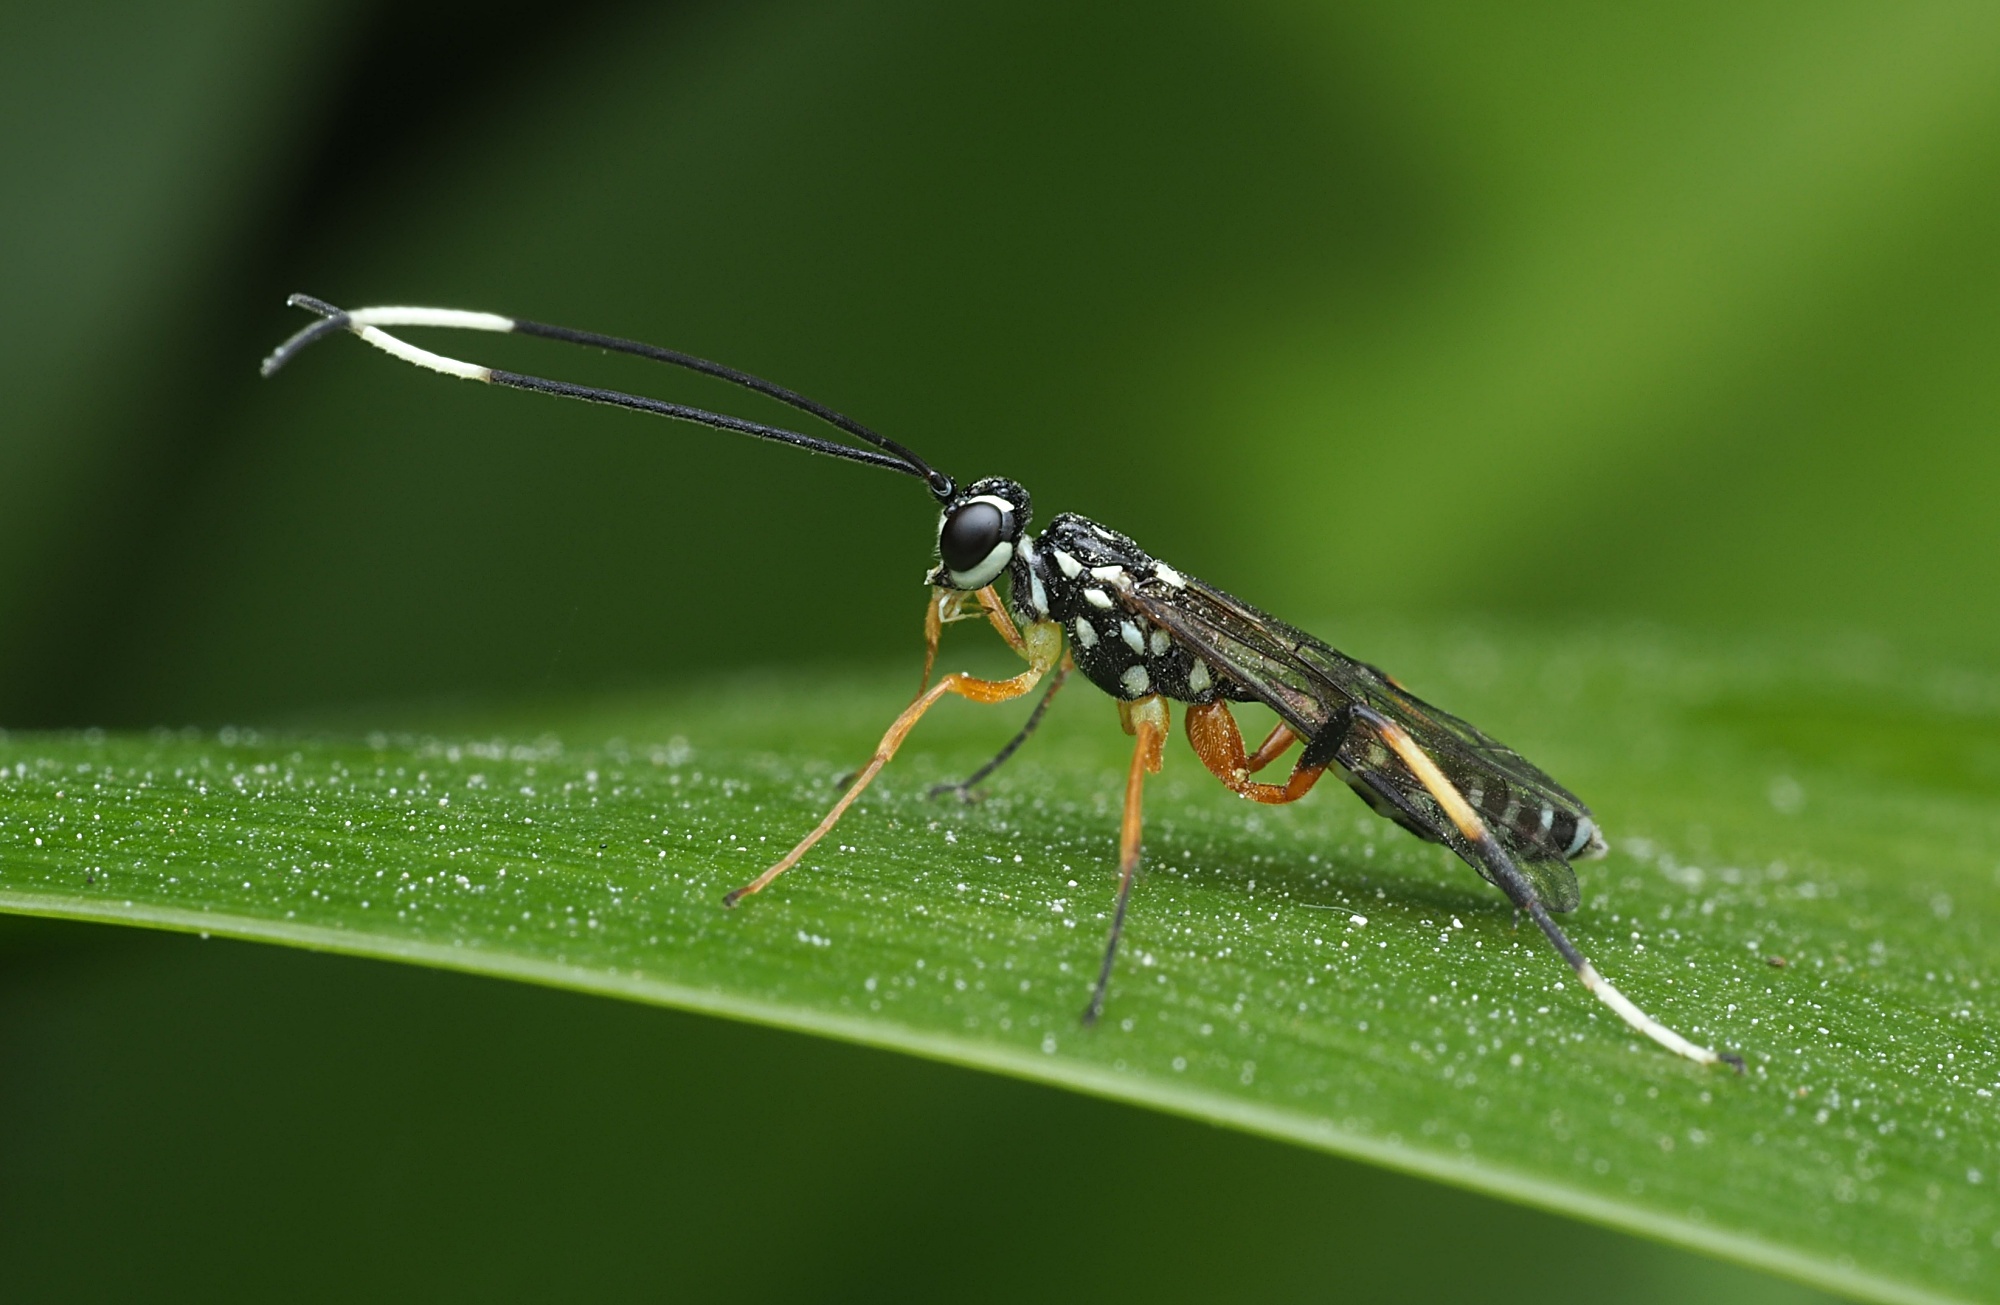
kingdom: Animalia
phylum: Arthropoda
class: Insecta
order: Hymenoptera
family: Ichneumonidae
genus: Xanthocryptus
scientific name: Xanthocryptus novozealandicus
